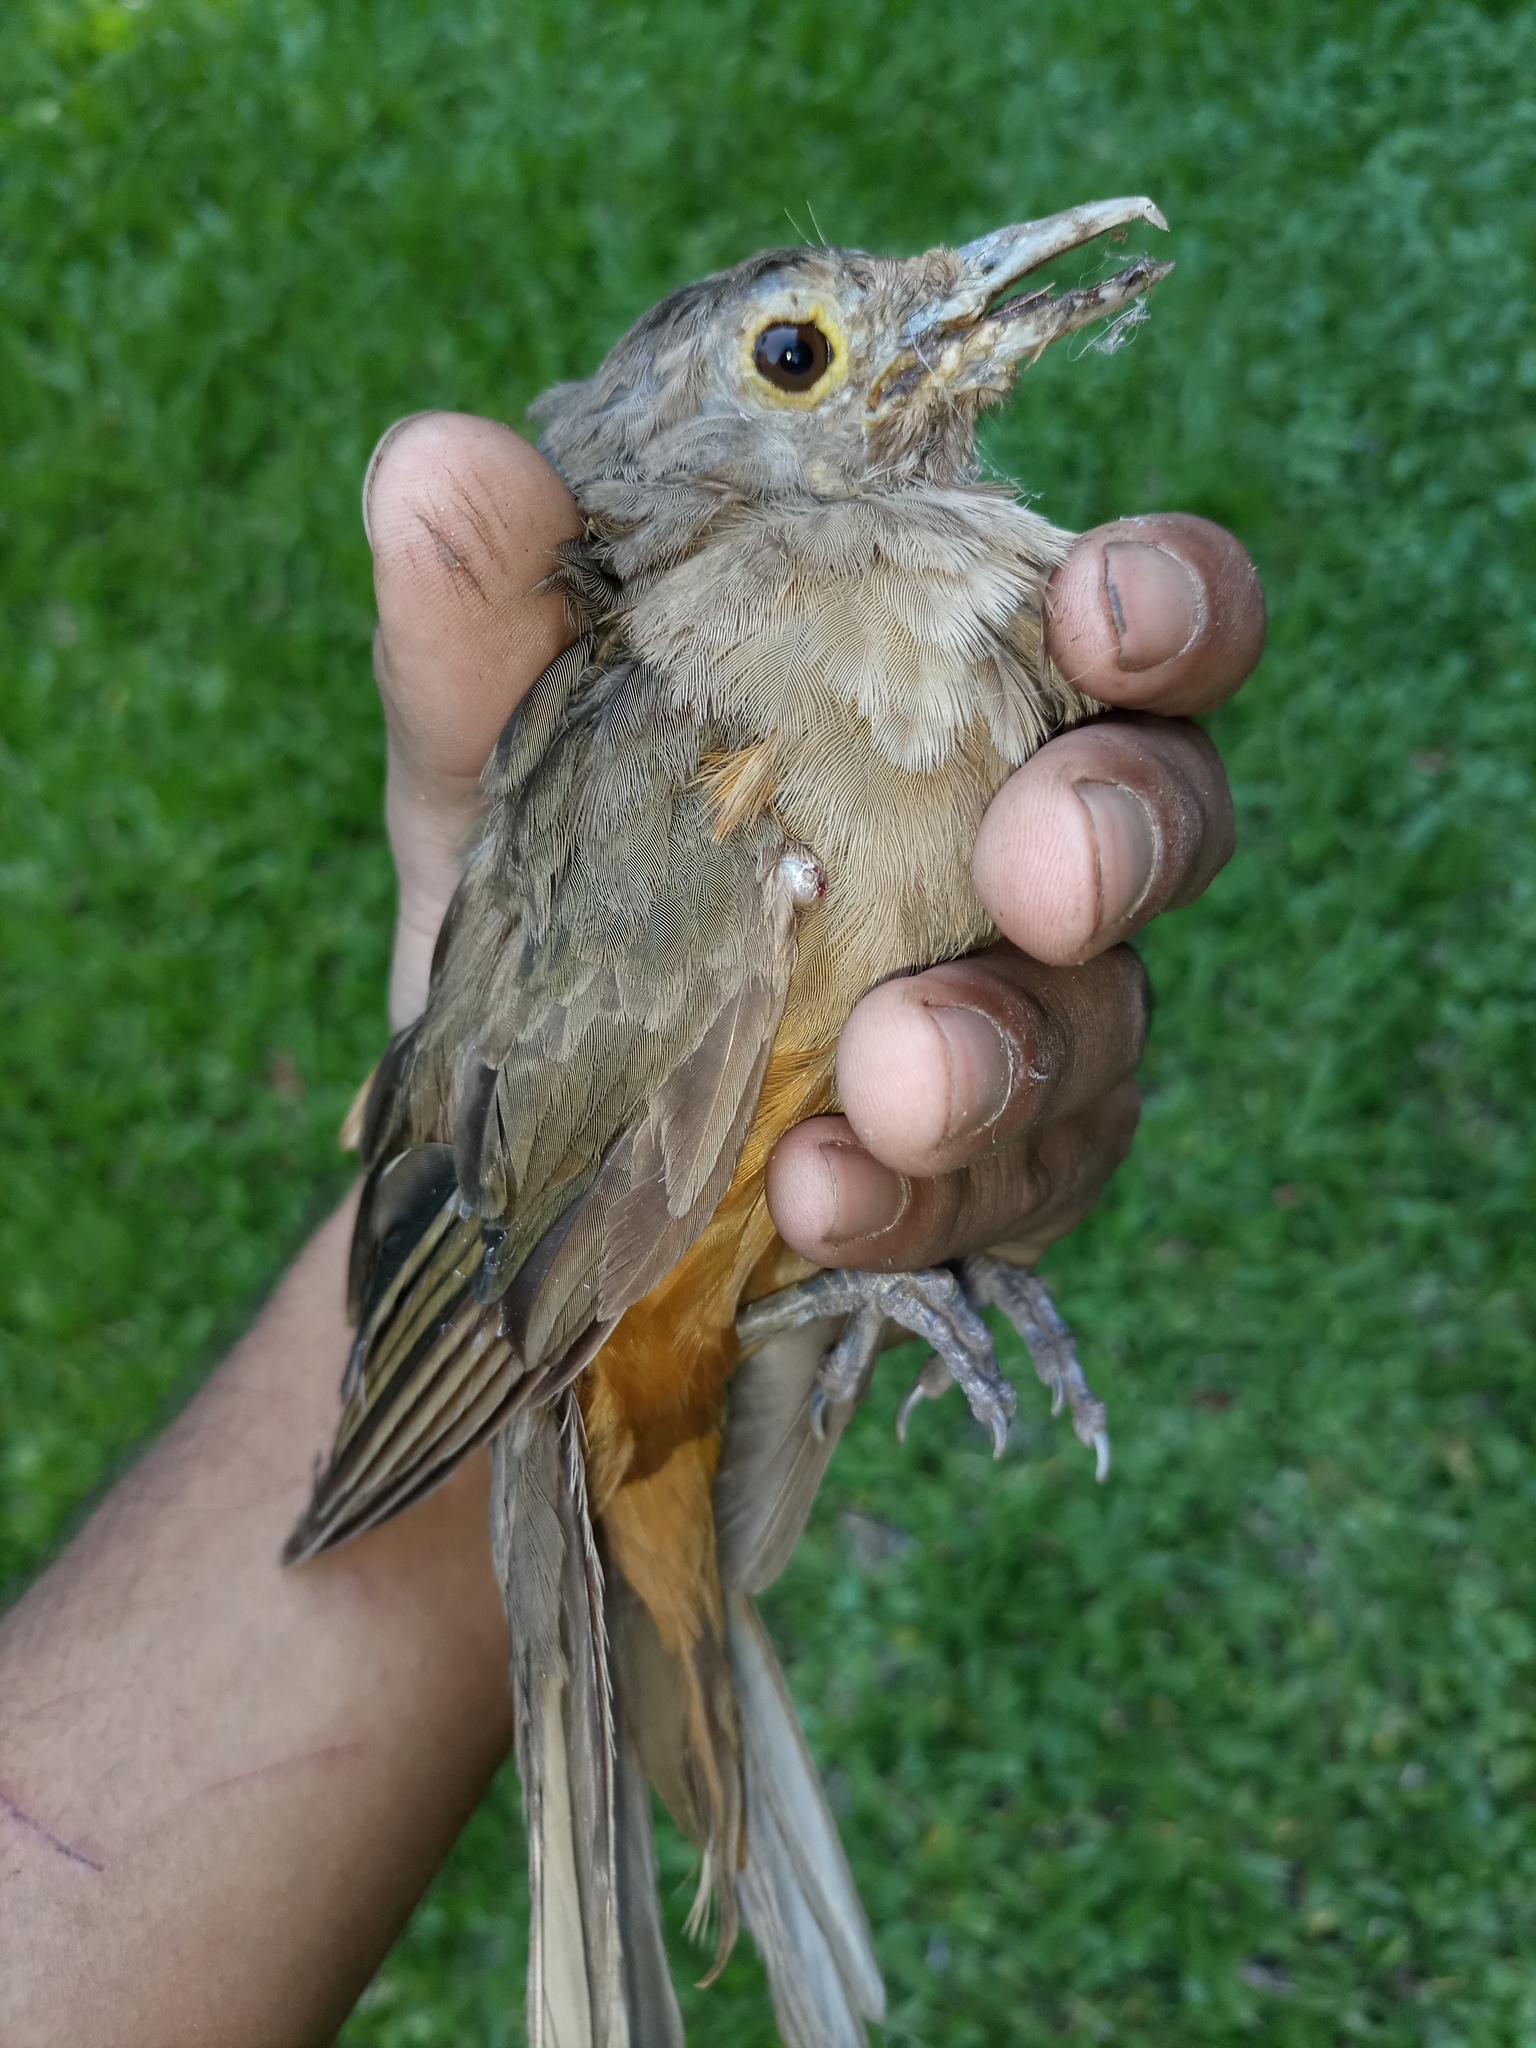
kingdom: Animalia
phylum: Chordata
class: Aves
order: Passeriformes
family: Turdidae
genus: Turdus
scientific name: Turdus rufiventris
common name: Rufous-bellied thrush
